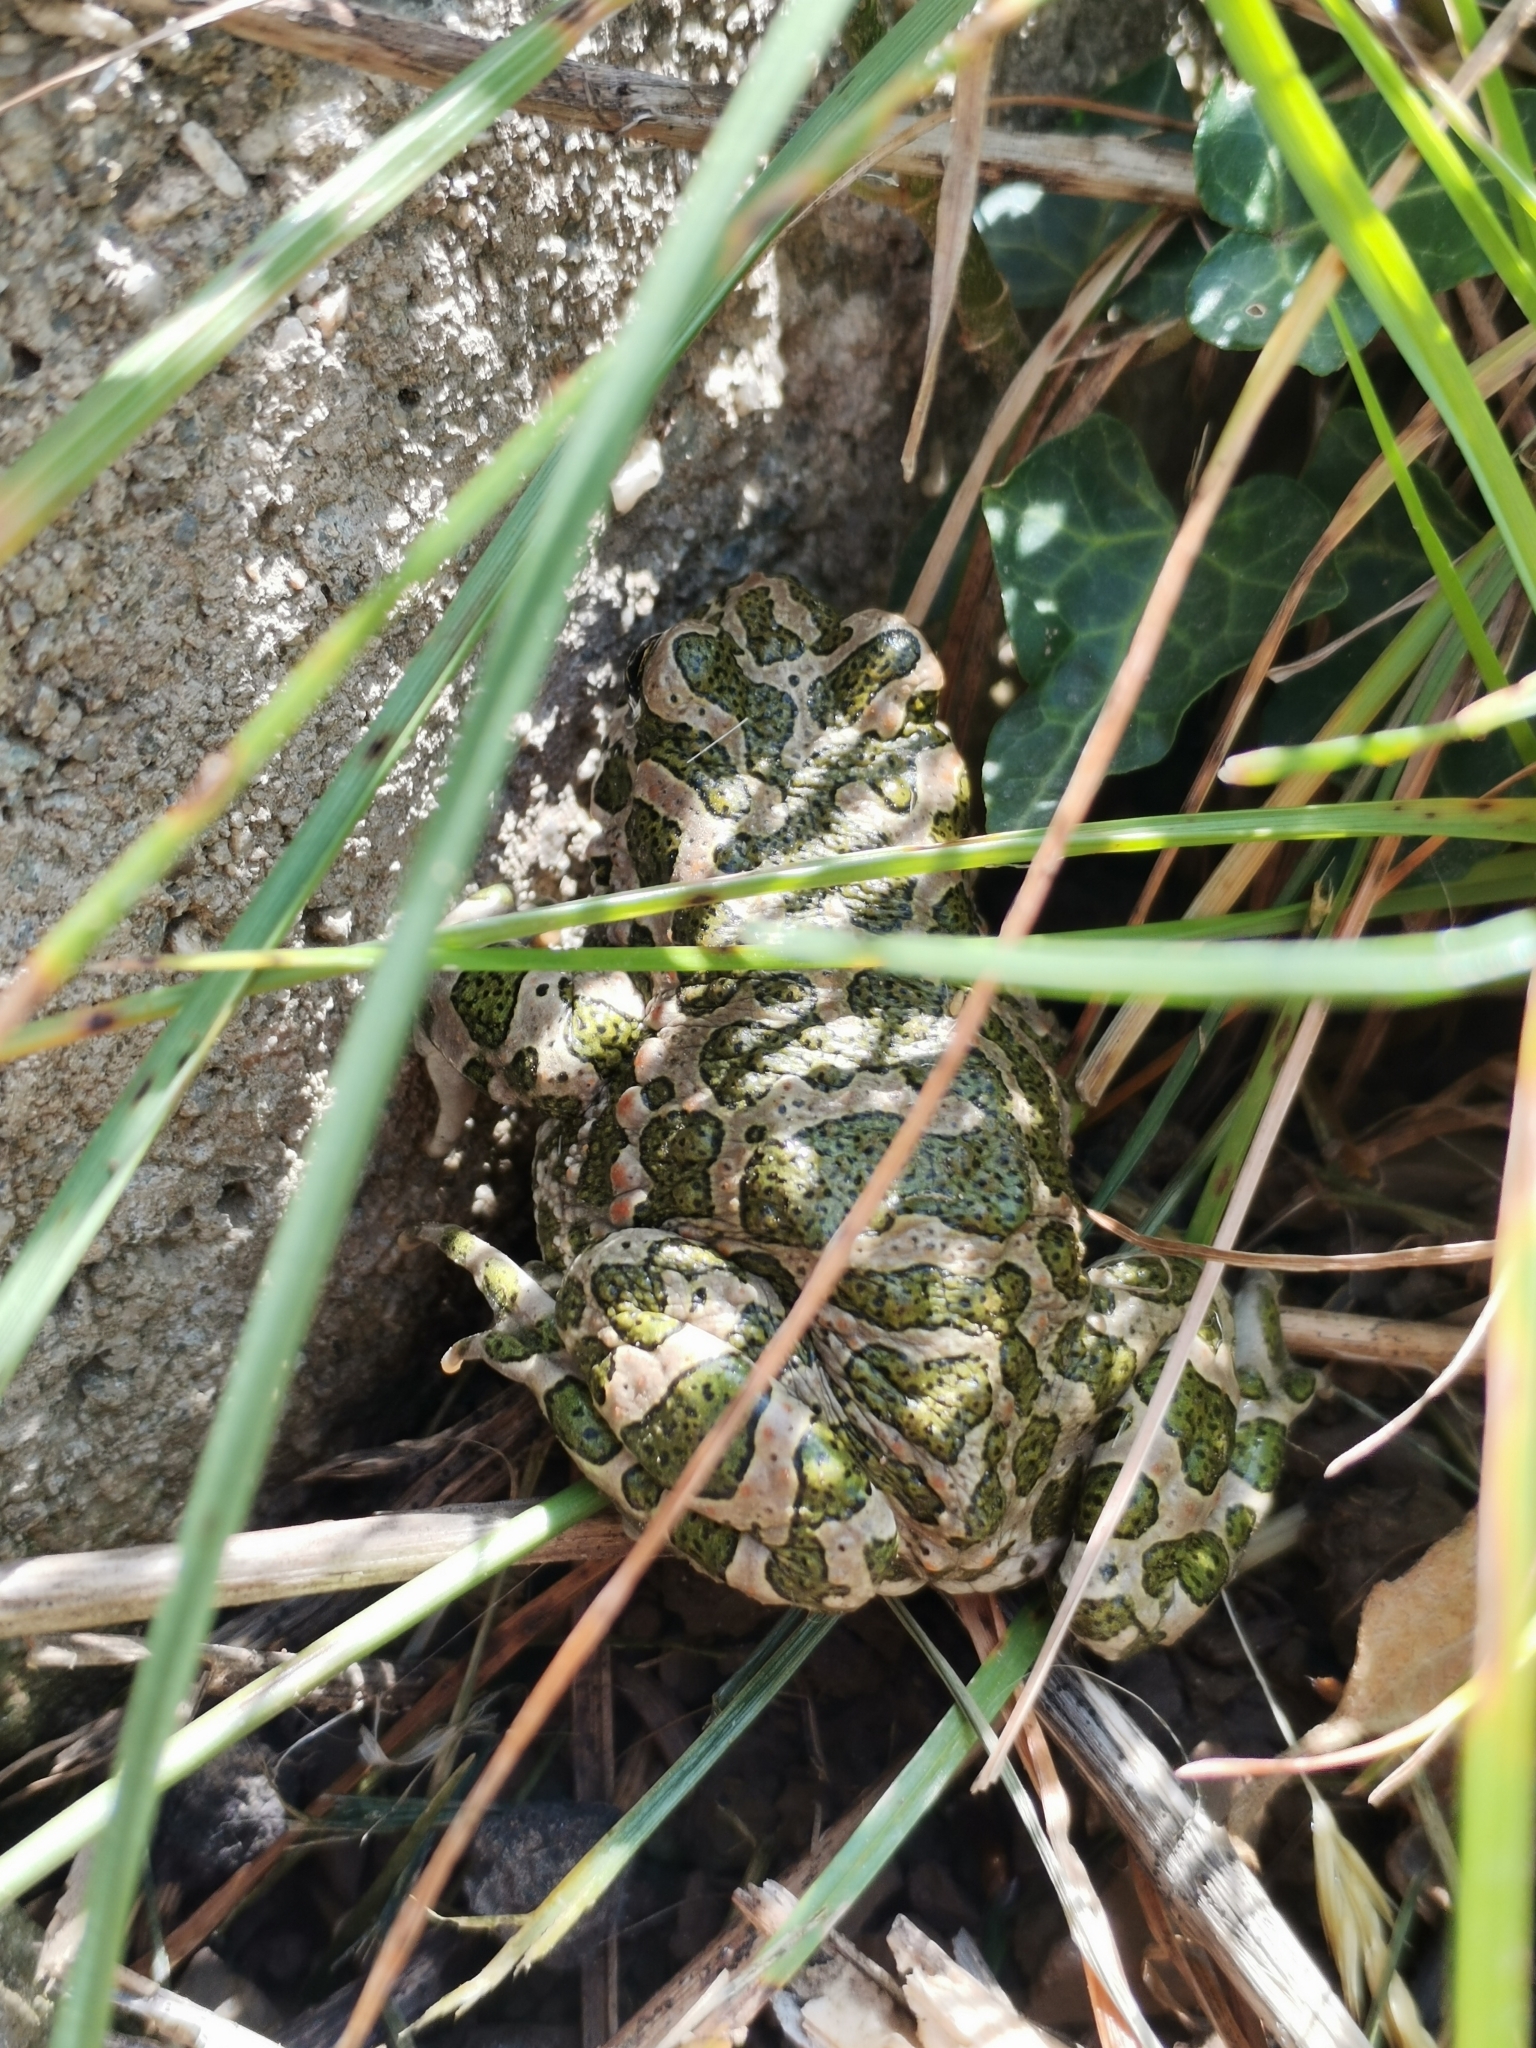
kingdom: Animalia
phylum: Chordata
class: Amphibia
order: Anura
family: Bufonidae
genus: Bufotes
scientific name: Bufotes viridis
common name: European green toad
